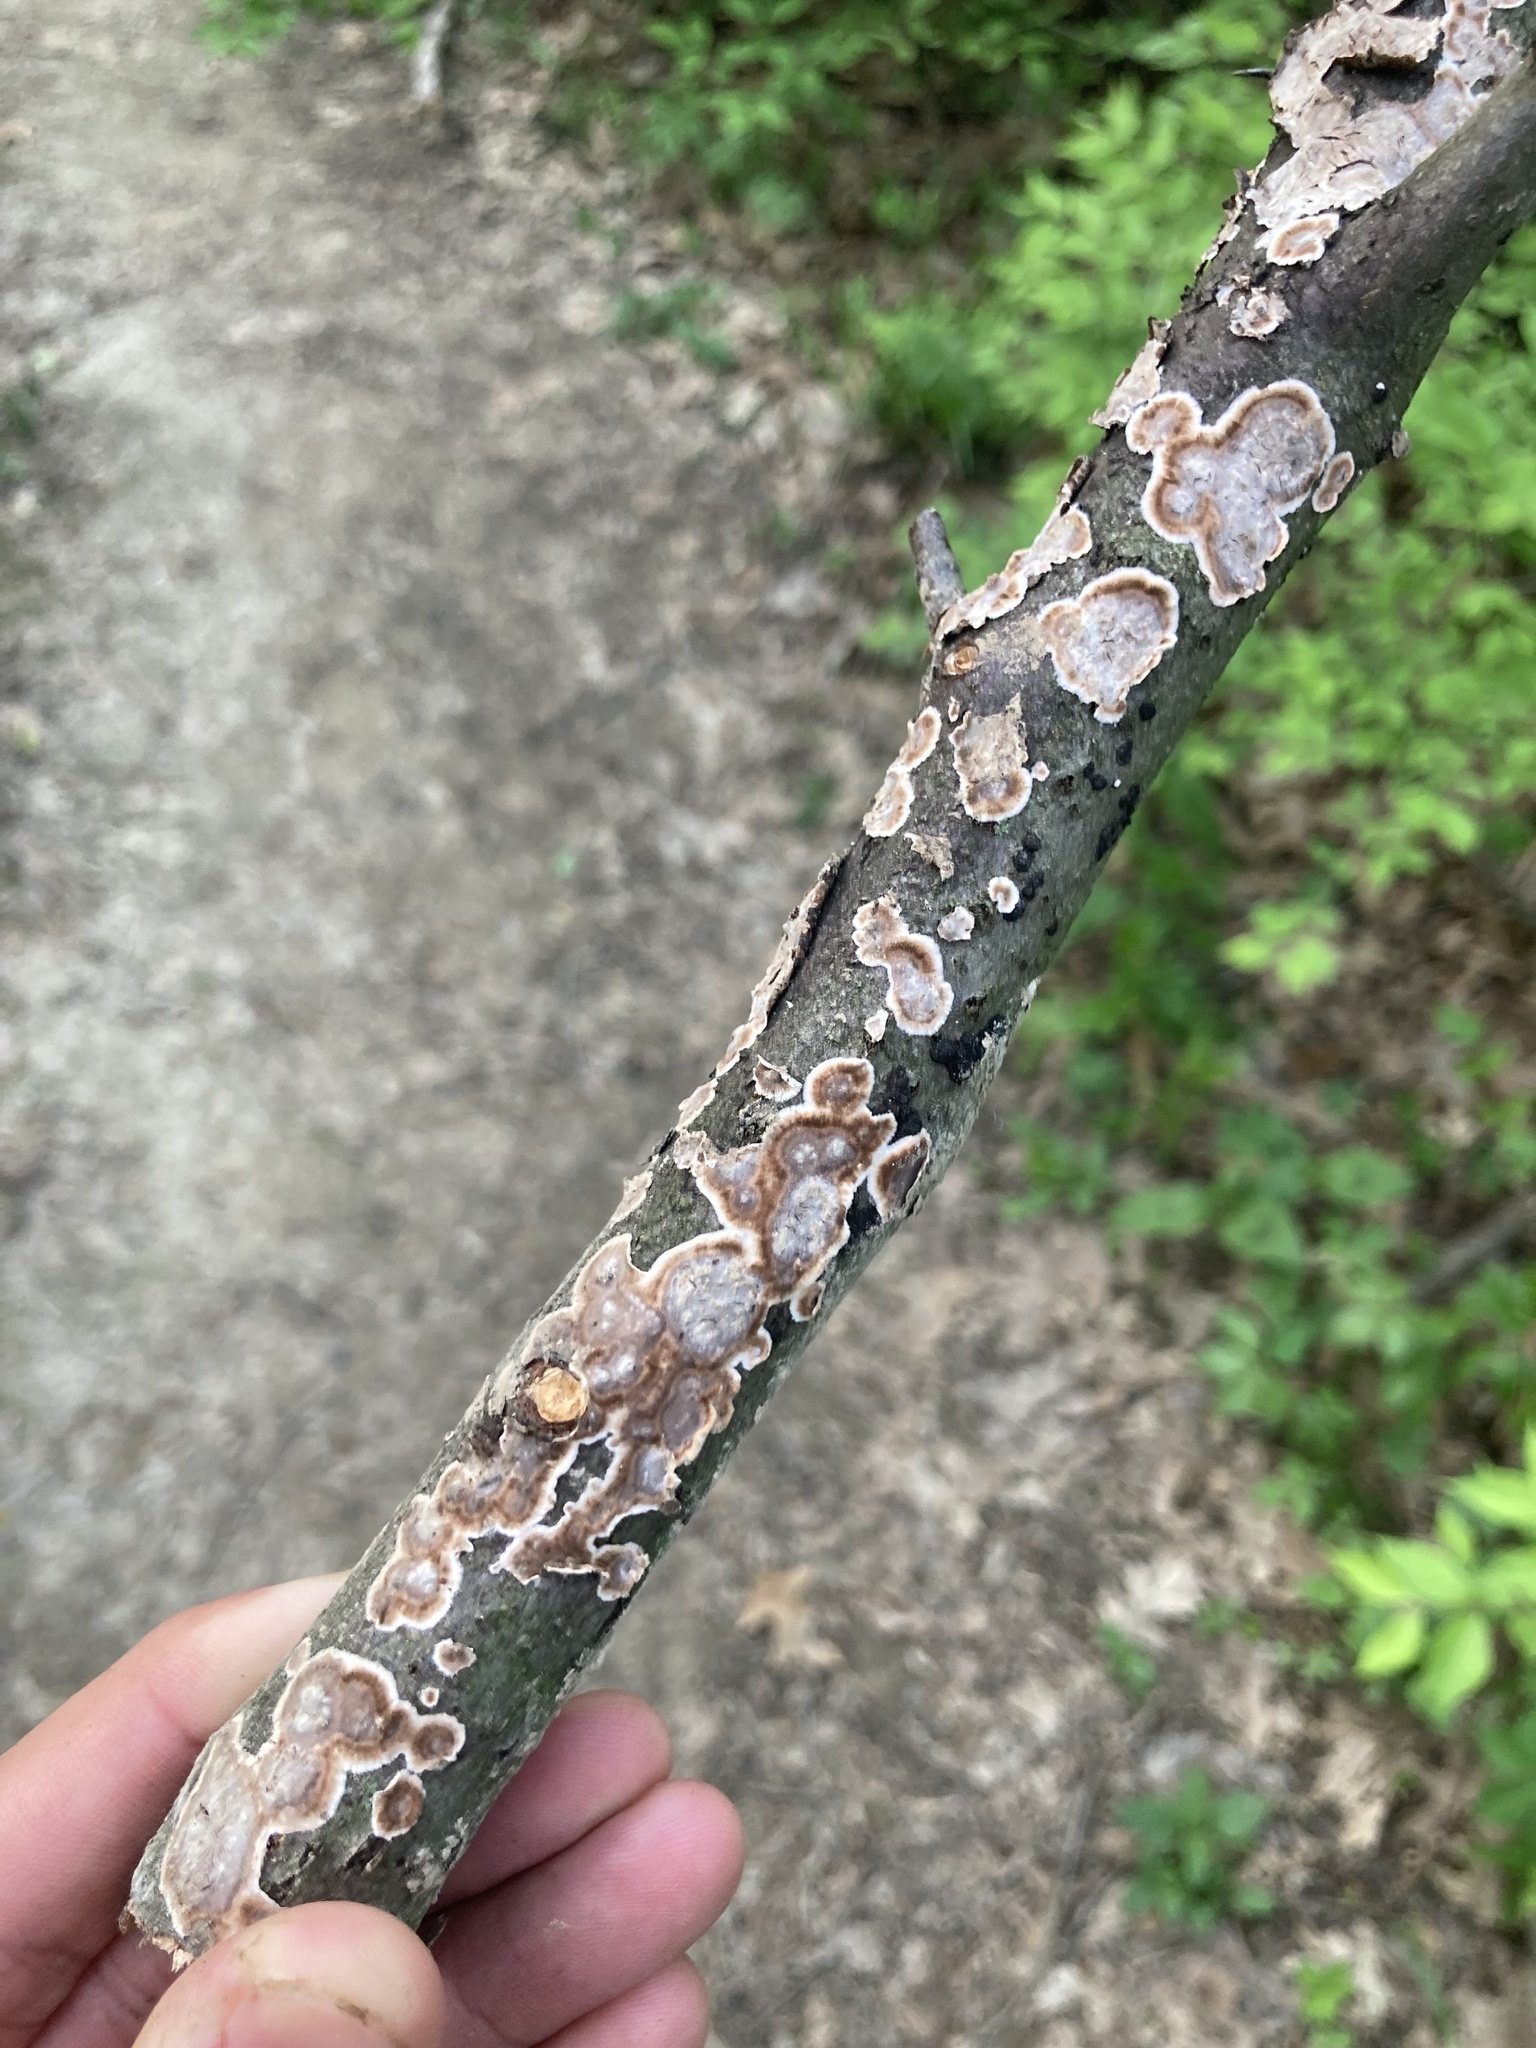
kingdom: Fungi
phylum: Basidiomycota
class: Agaricomycetes
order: Russulales
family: Peniophoraceae
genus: Peniophora
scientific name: Peniophora albobadia
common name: Giraffe spots
